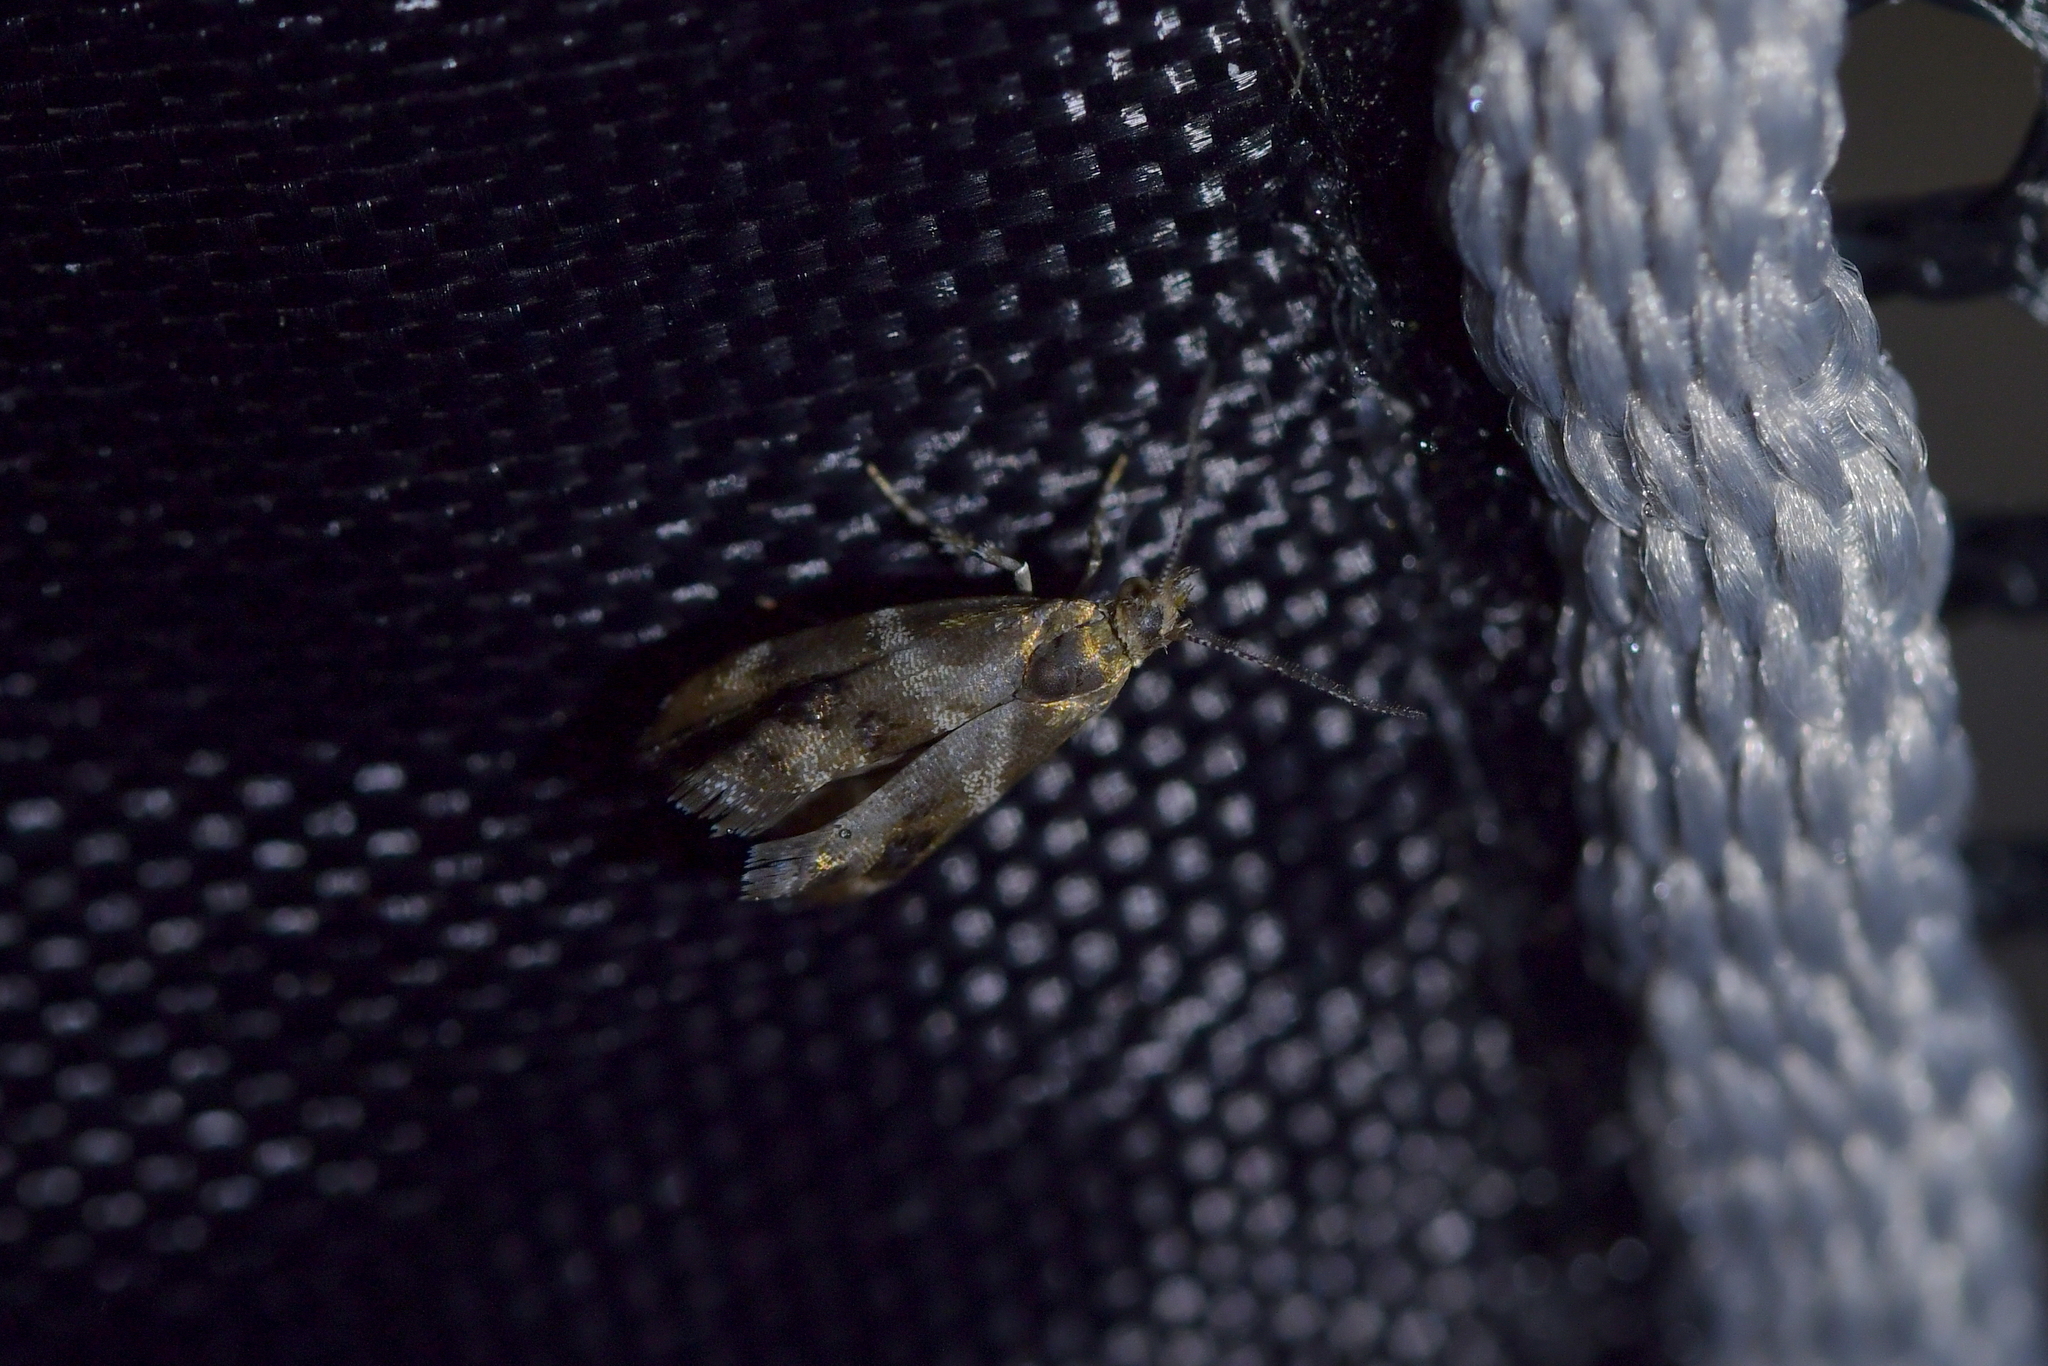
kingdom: Animalia
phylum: Arthropoda
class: Insecta
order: Lepidoptera
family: Choreutidae
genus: Tebenna
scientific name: Tebenna micalis
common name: Vagrant twitcher
